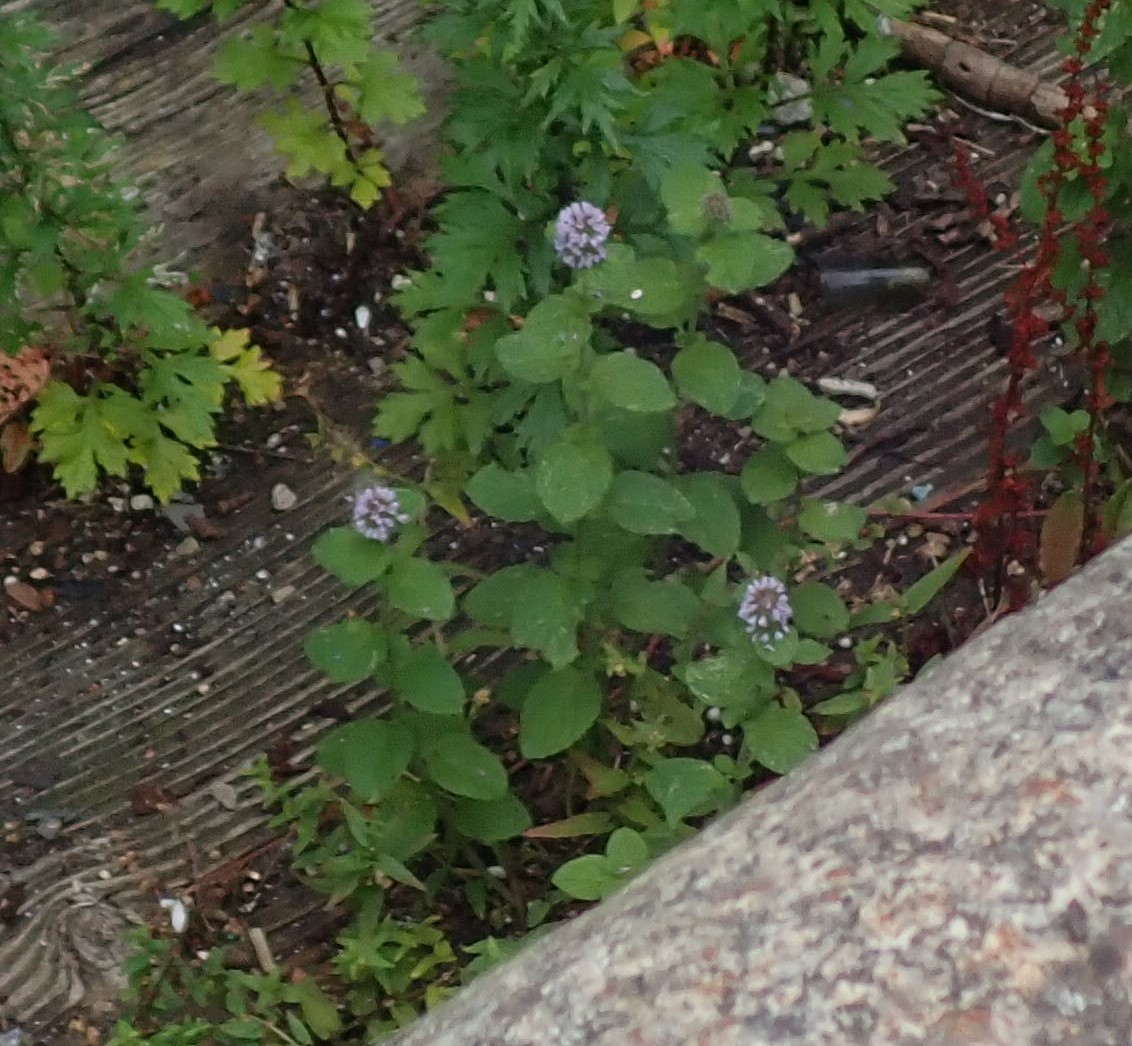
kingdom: Plantae
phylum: Tracheophyta
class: Magnoliopsida
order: Lamiales
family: Lamiaceae
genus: Mentha
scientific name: Mentha aquatica
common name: Water mint
